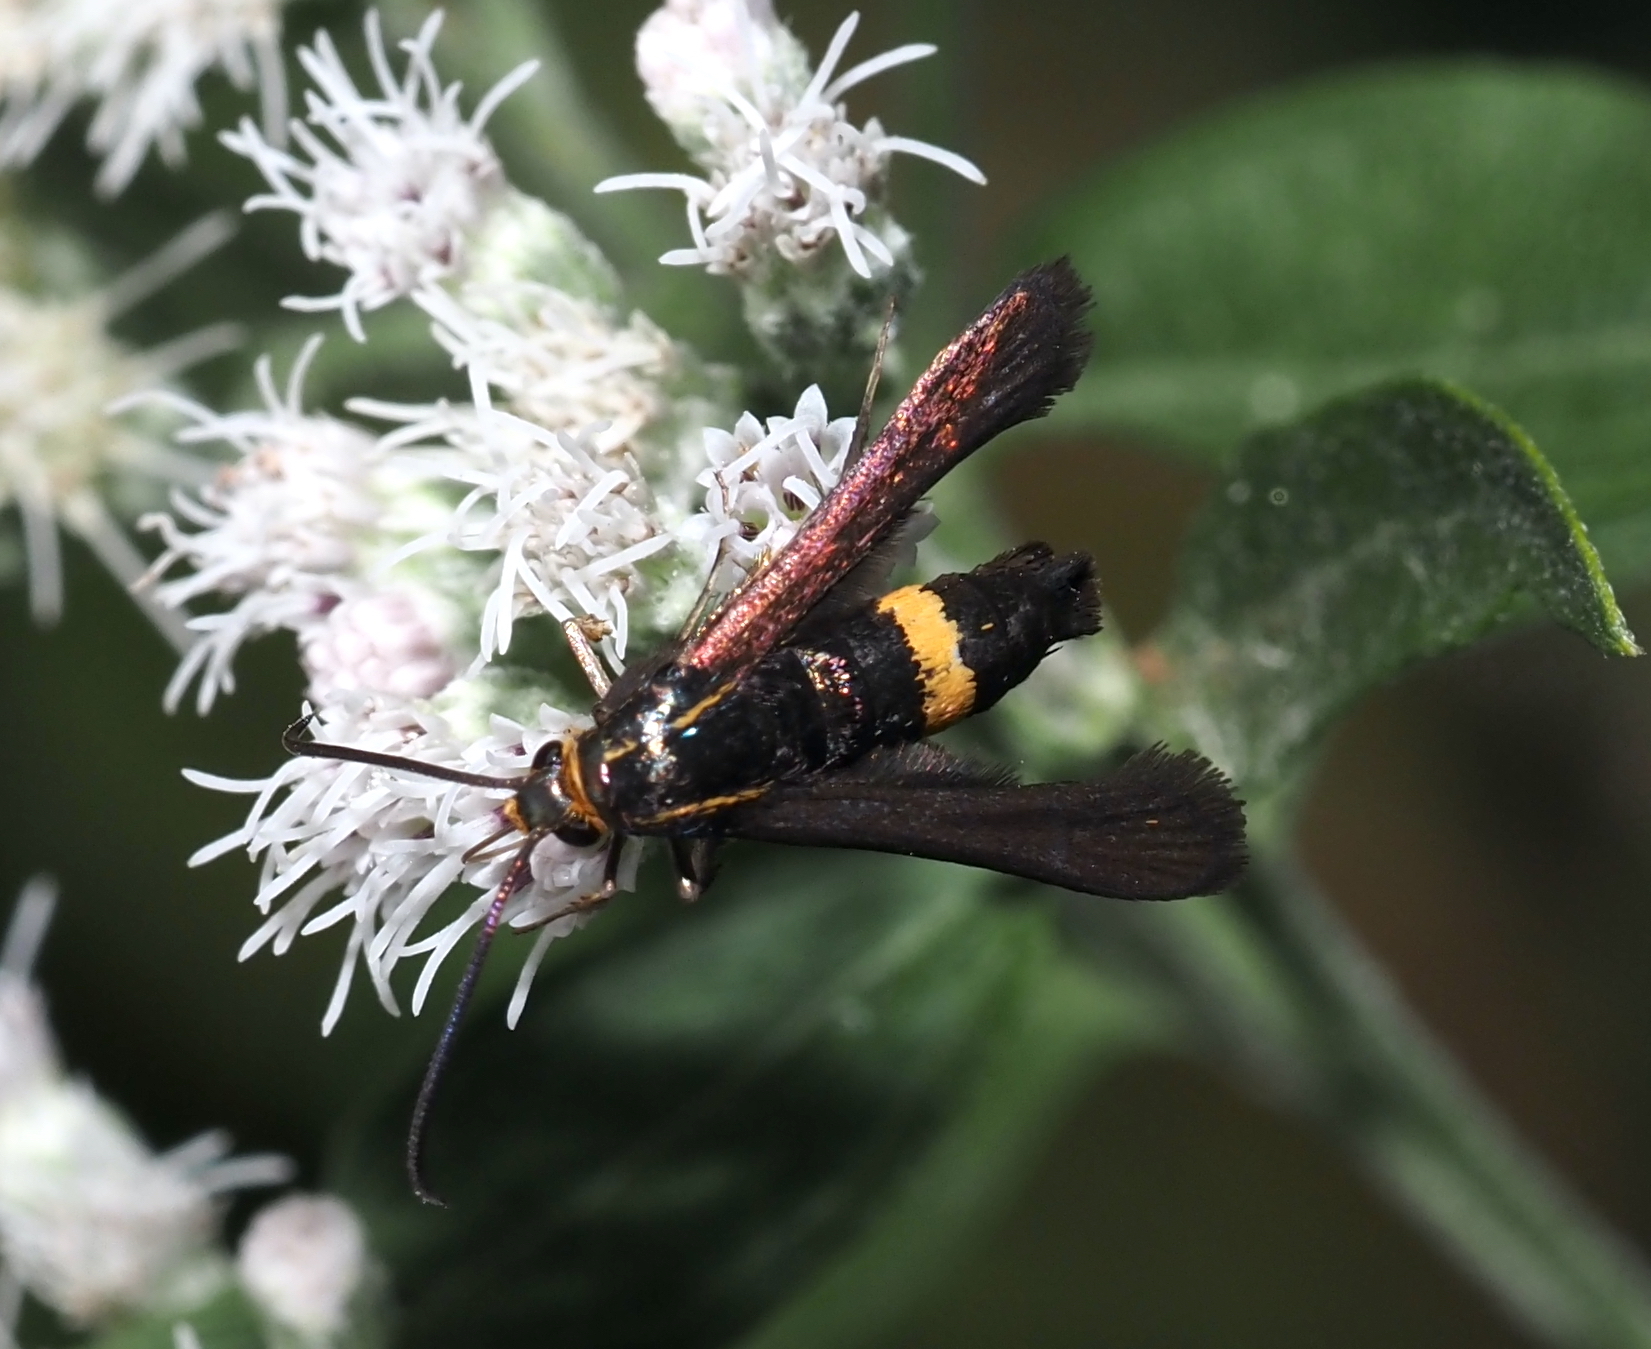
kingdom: Animalia
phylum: Arthropoda
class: Insecta
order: Lepidoptera
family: Sesiidae
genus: Carmenta
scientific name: Carmenta pyralidiformis
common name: Boneset borer moth
